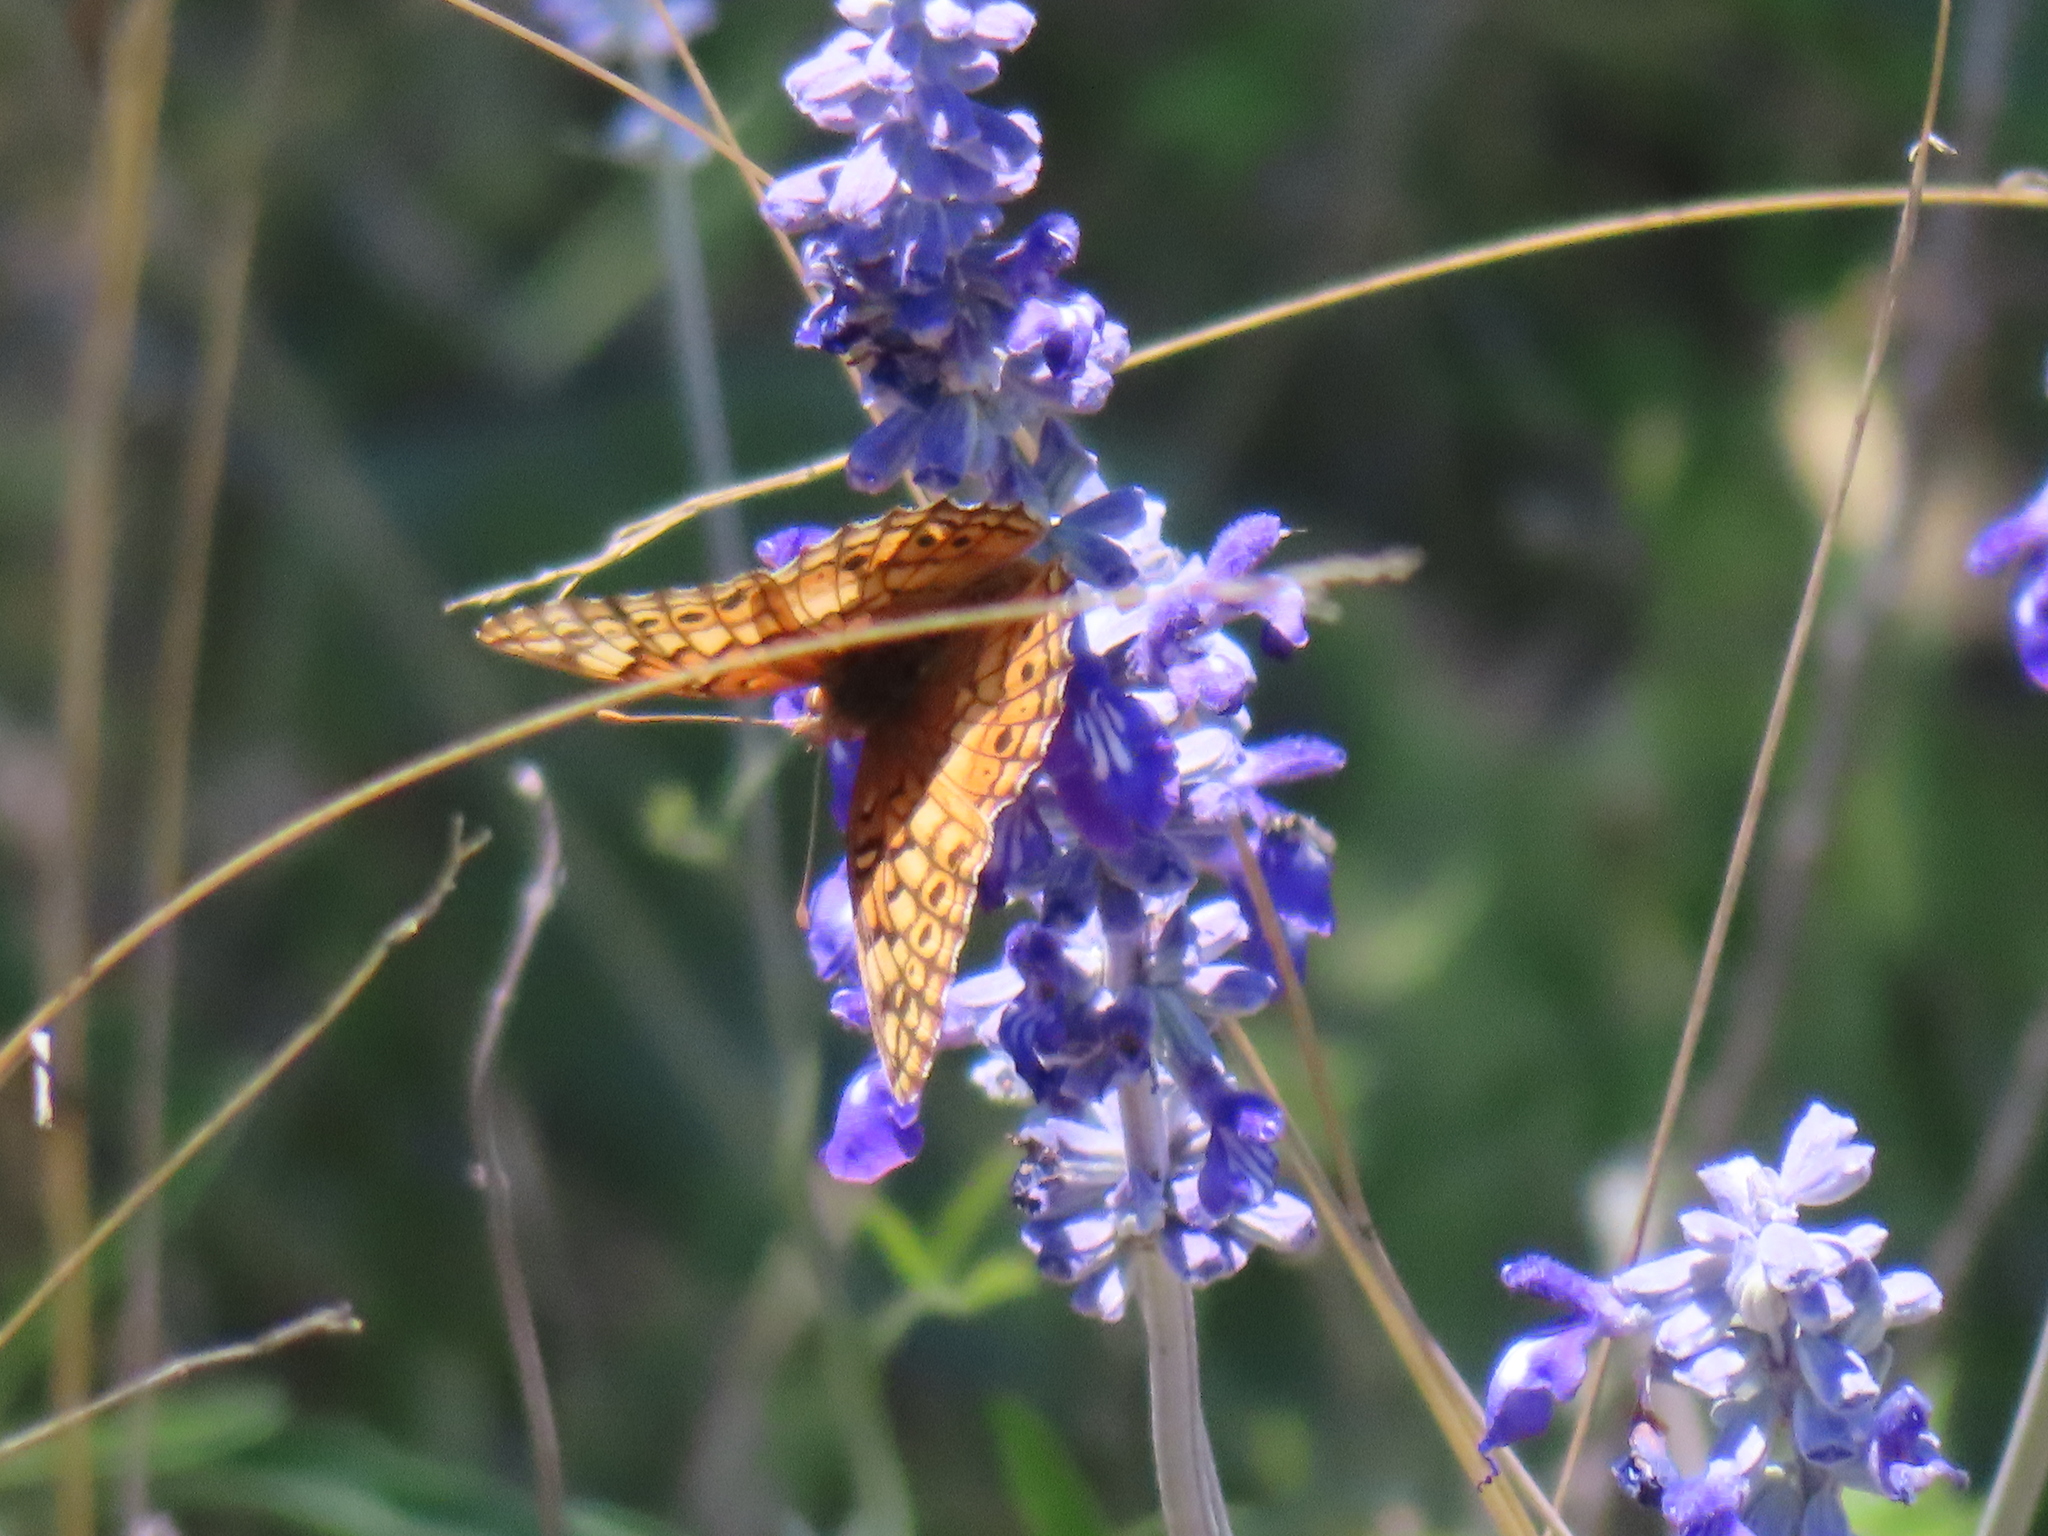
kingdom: Animalia
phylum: Arthropoda
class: Insecta
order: Lepidoptera
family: Nymphalidae
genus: Euptoieta
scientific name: Euptoieta claudia
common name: Variegated fritillary
